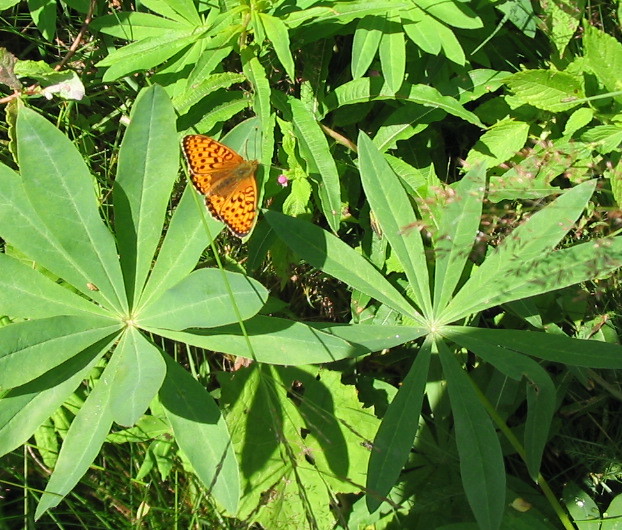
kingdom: Plantae
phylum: Tracheophyta
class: Magnoliopsida
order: Fabales
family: Fabaceae
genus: Lupinus
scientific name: Lupinus polyphyllus
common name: Garden lupin
